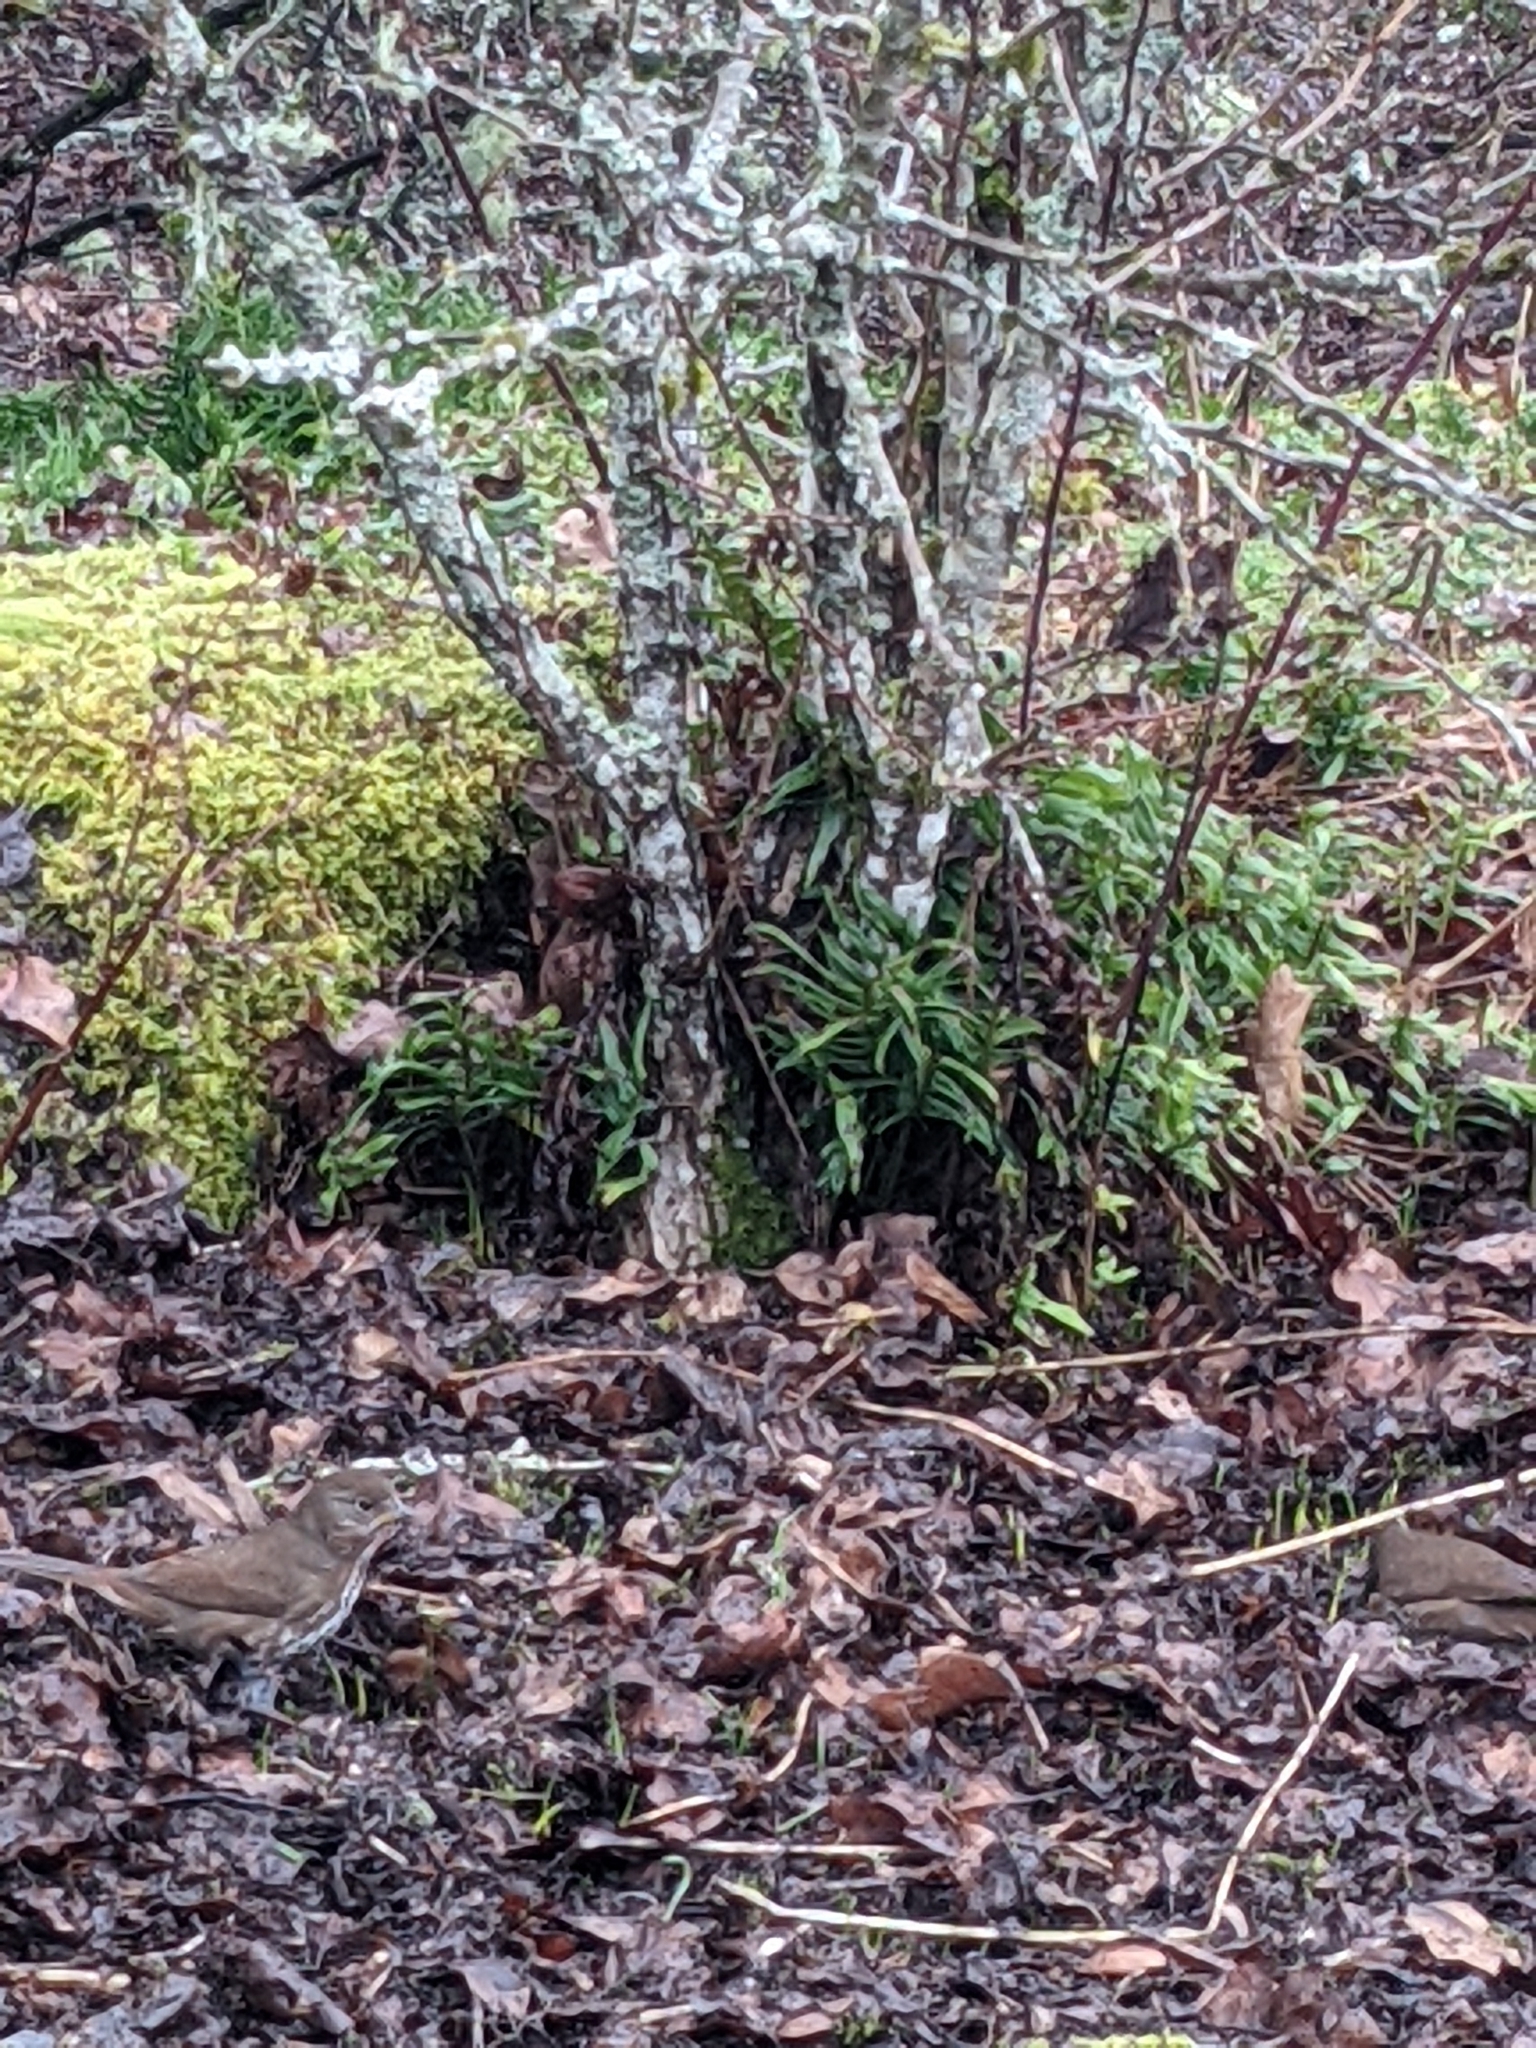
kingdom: Animalia
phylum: Chordata
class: Aves
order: Passeriformes
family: Passerellidae
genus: Passerella
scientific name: Passerella iliaca
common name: Fox sparrow
